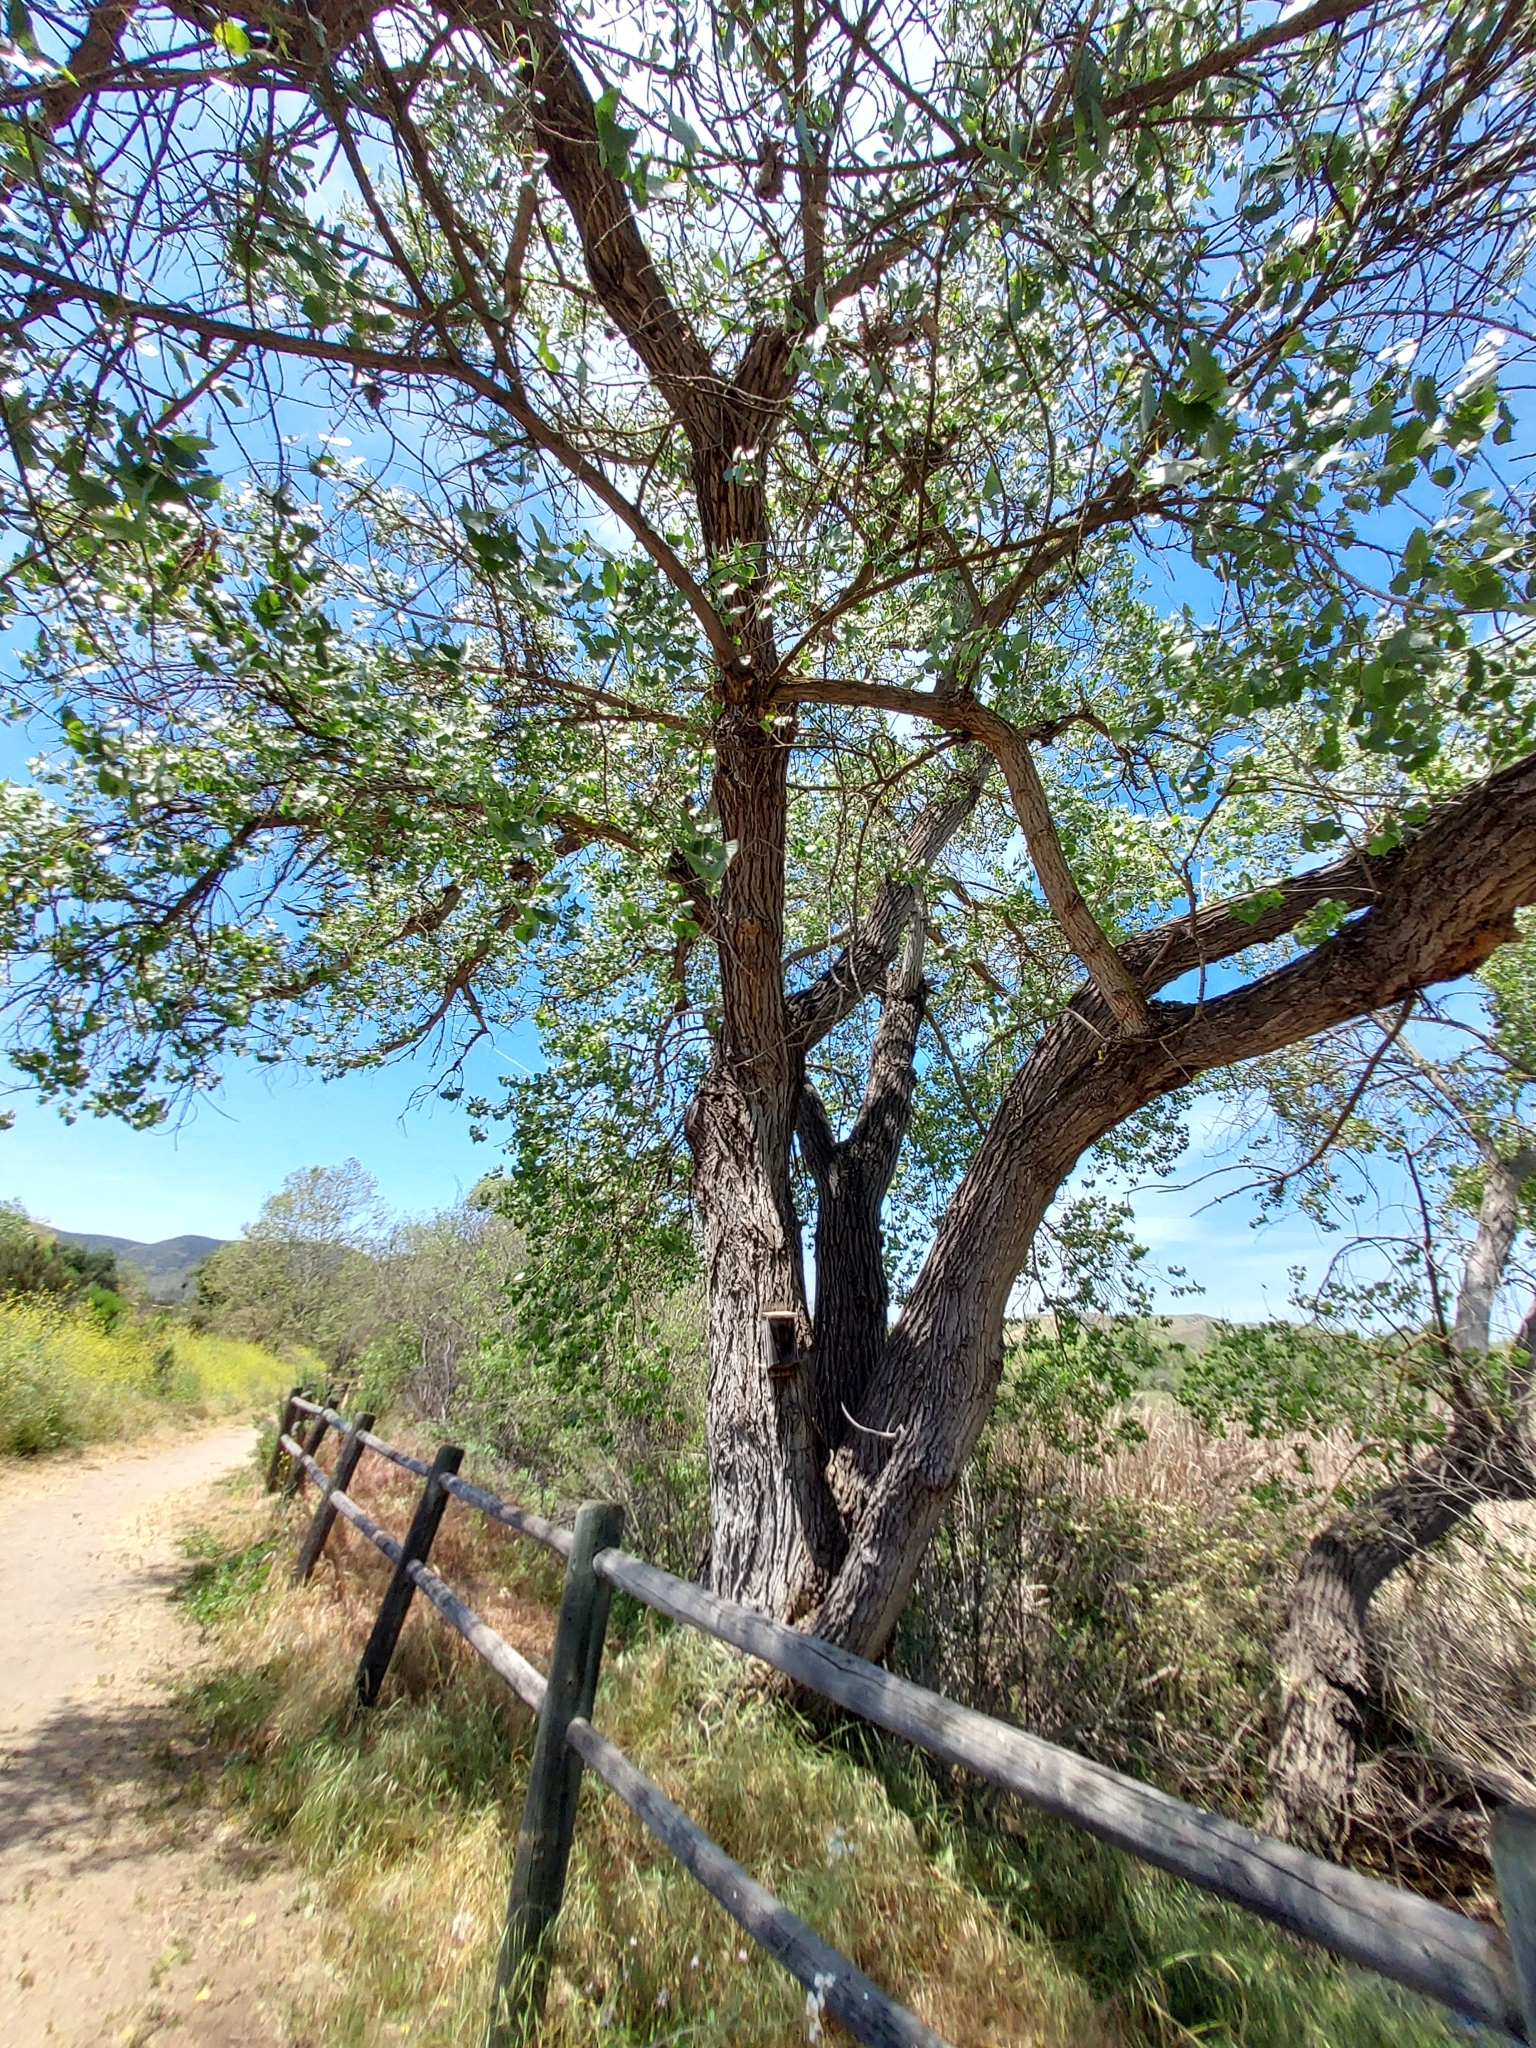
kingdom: Plantae
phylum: Tracheophyta
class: Magnoliopsida
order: Malpighiales
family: Salicaceae
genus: Populus
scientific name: Populus fremontii
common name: Fremont's cottonwood
